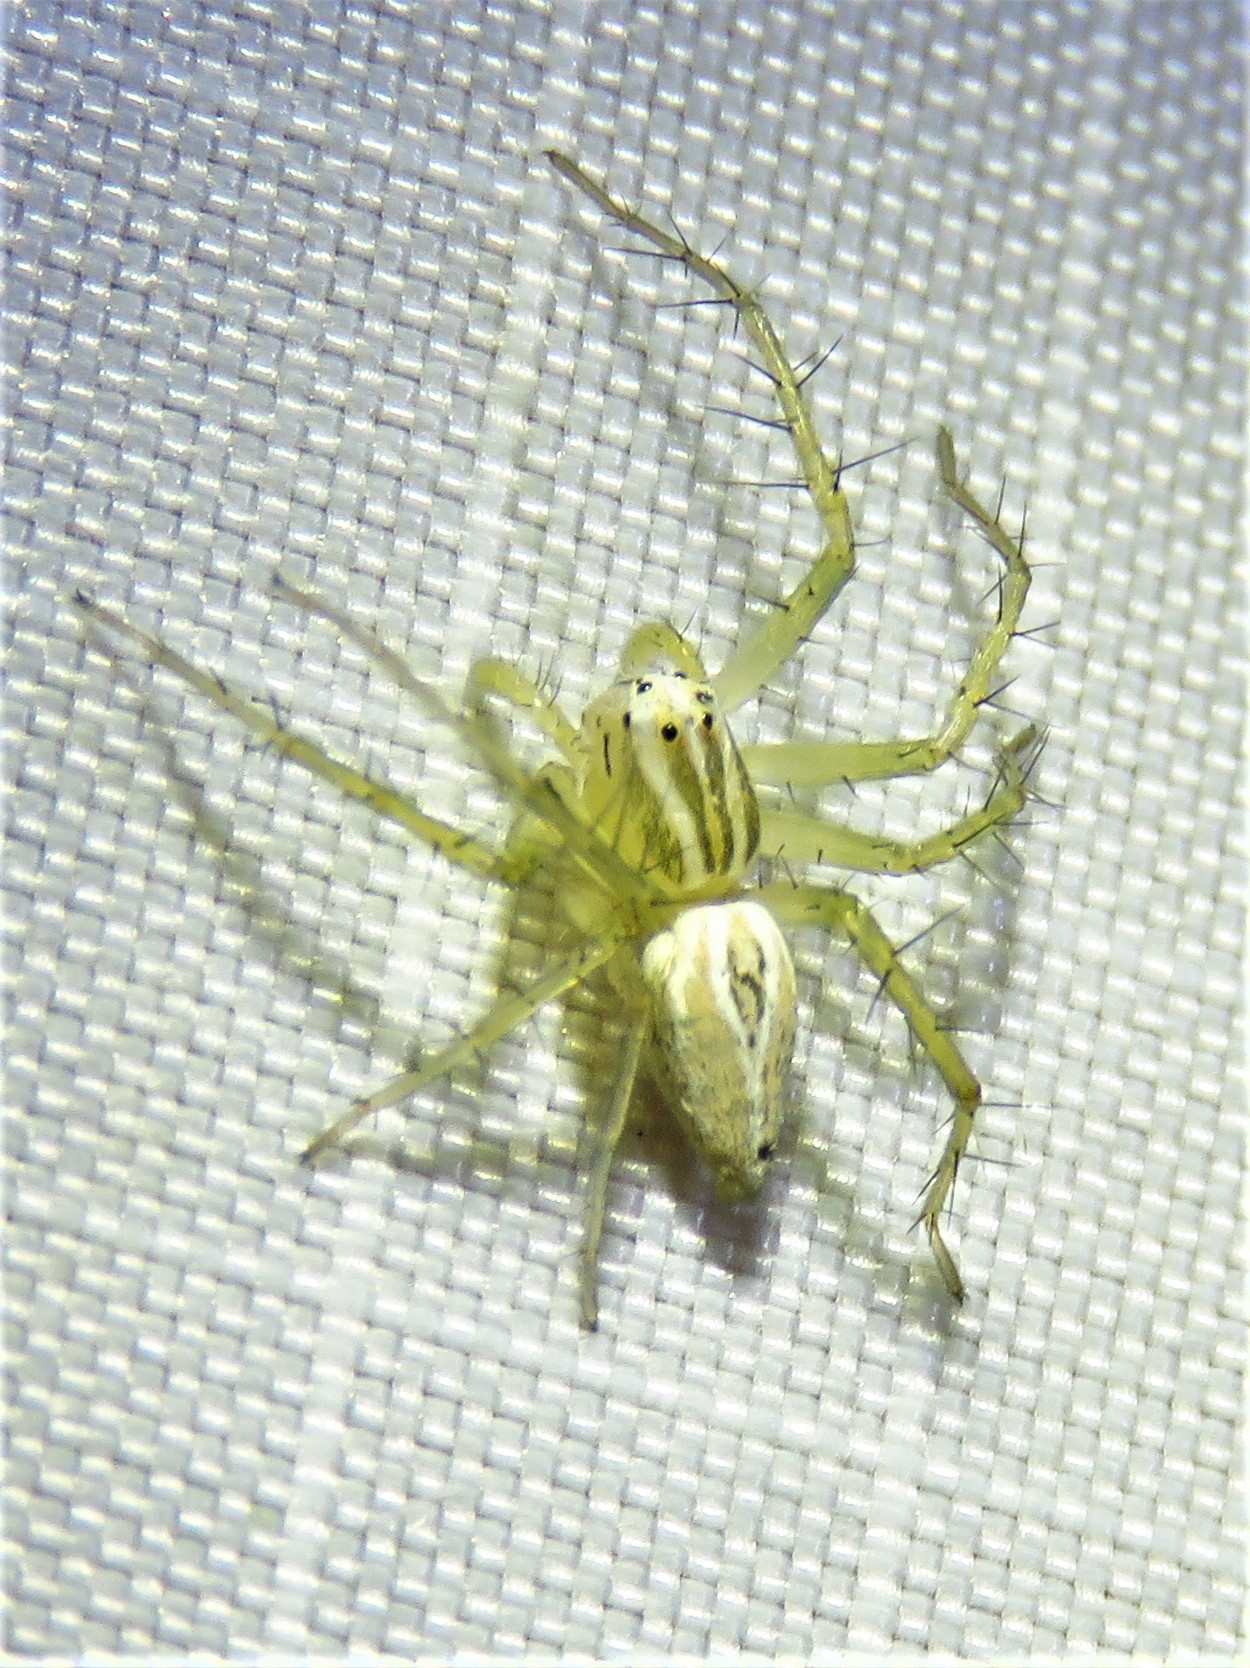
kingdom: Animalia
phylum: Arthropoda
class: Arachnida
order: Araneae
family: Oxyopidae
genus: Oxyopes
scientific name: Oxyopes salticus
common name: Lynx spiders
